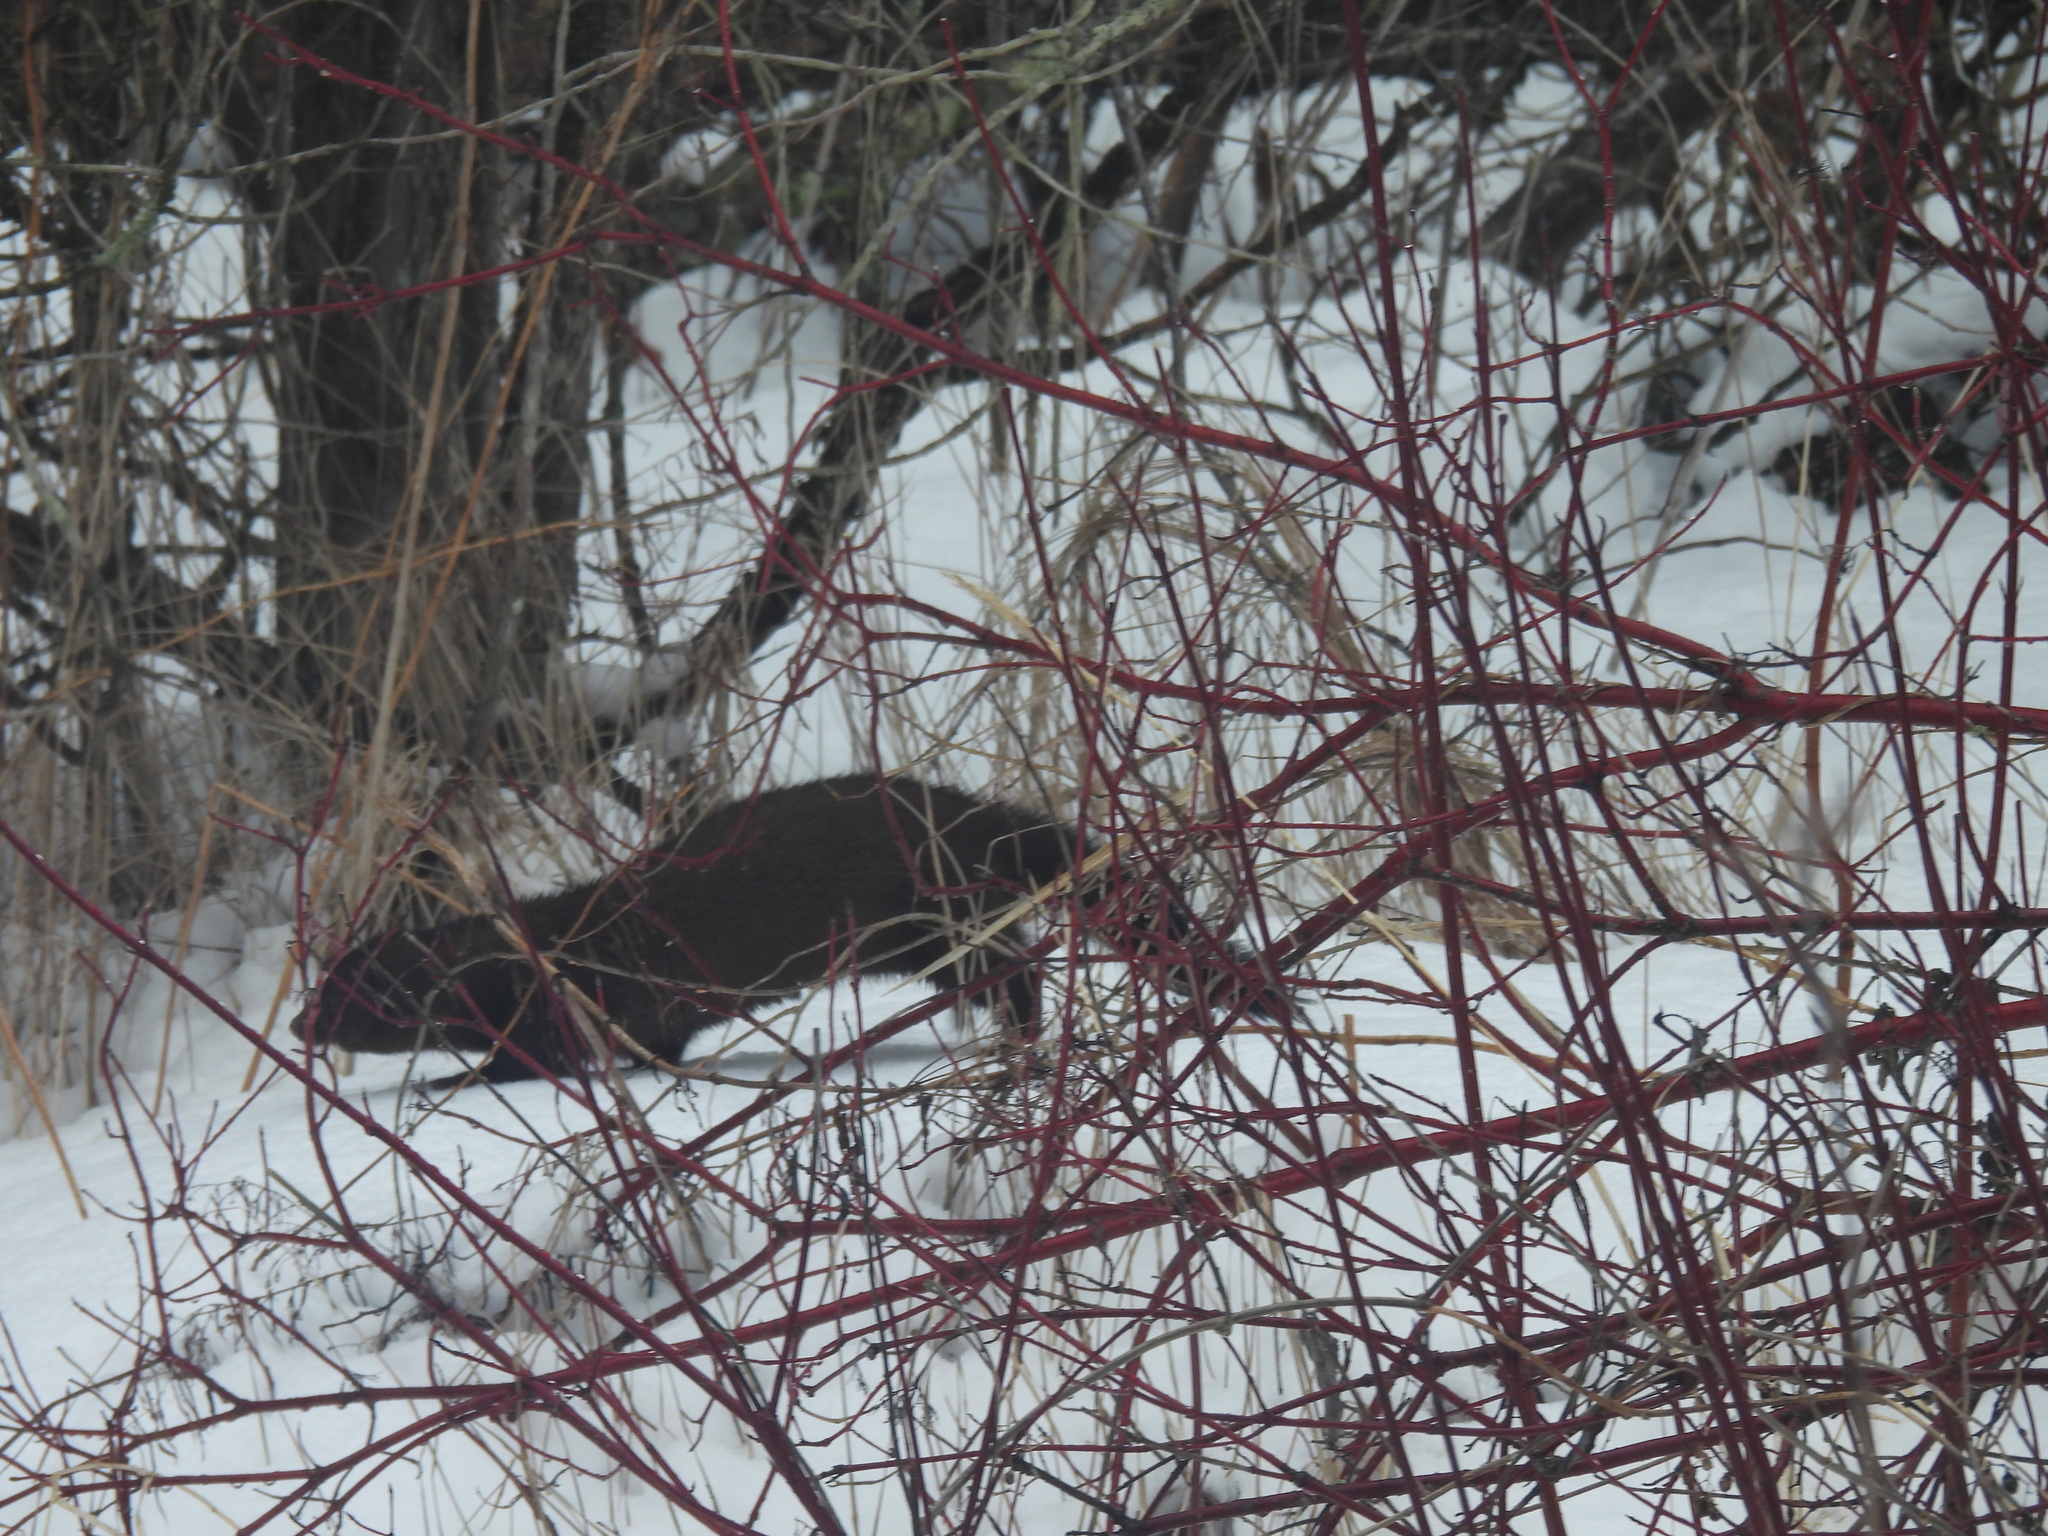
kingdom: Animalia
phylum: Chordata
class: Mammalia
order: Carnivora
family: Mustelidae
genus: Mustela
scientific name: Mustela
